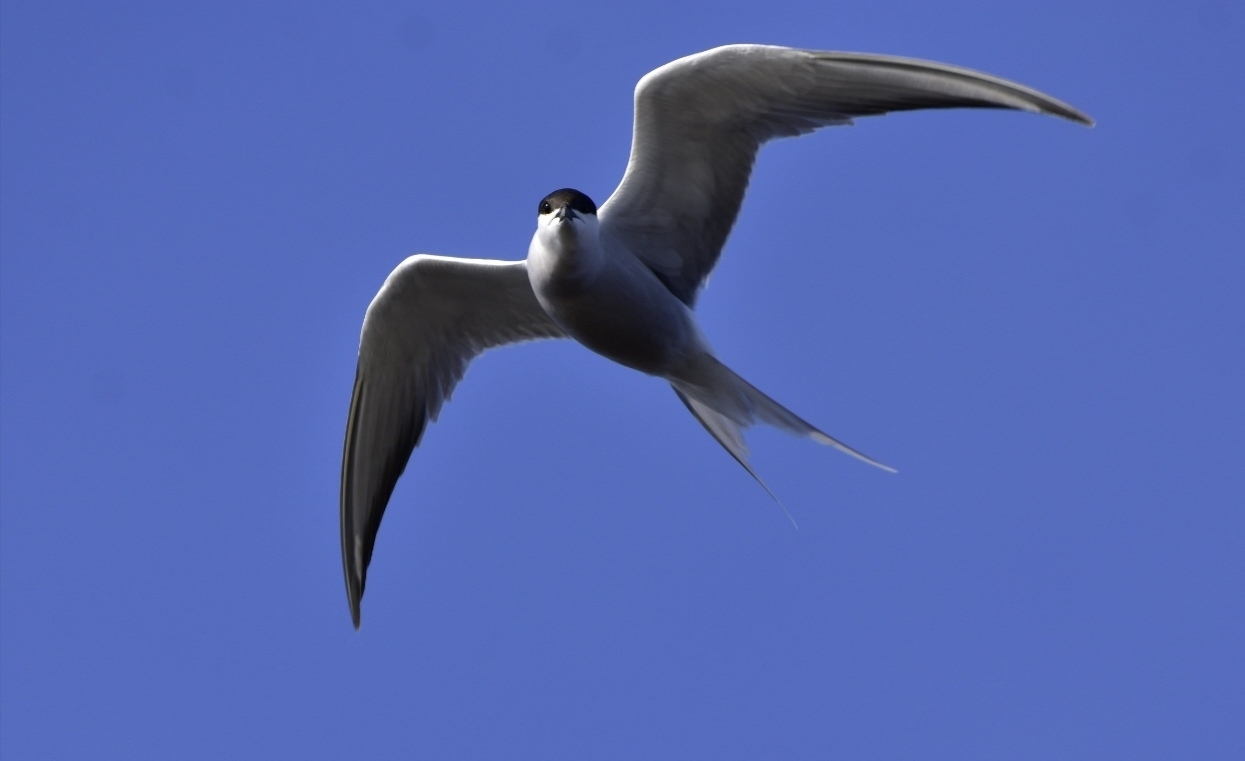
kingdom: Animalia
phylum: Chordata
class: Aves
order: Charadriiformes
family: Laridae
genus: Sterna
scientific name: Sterna hirundo
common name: Common tern
